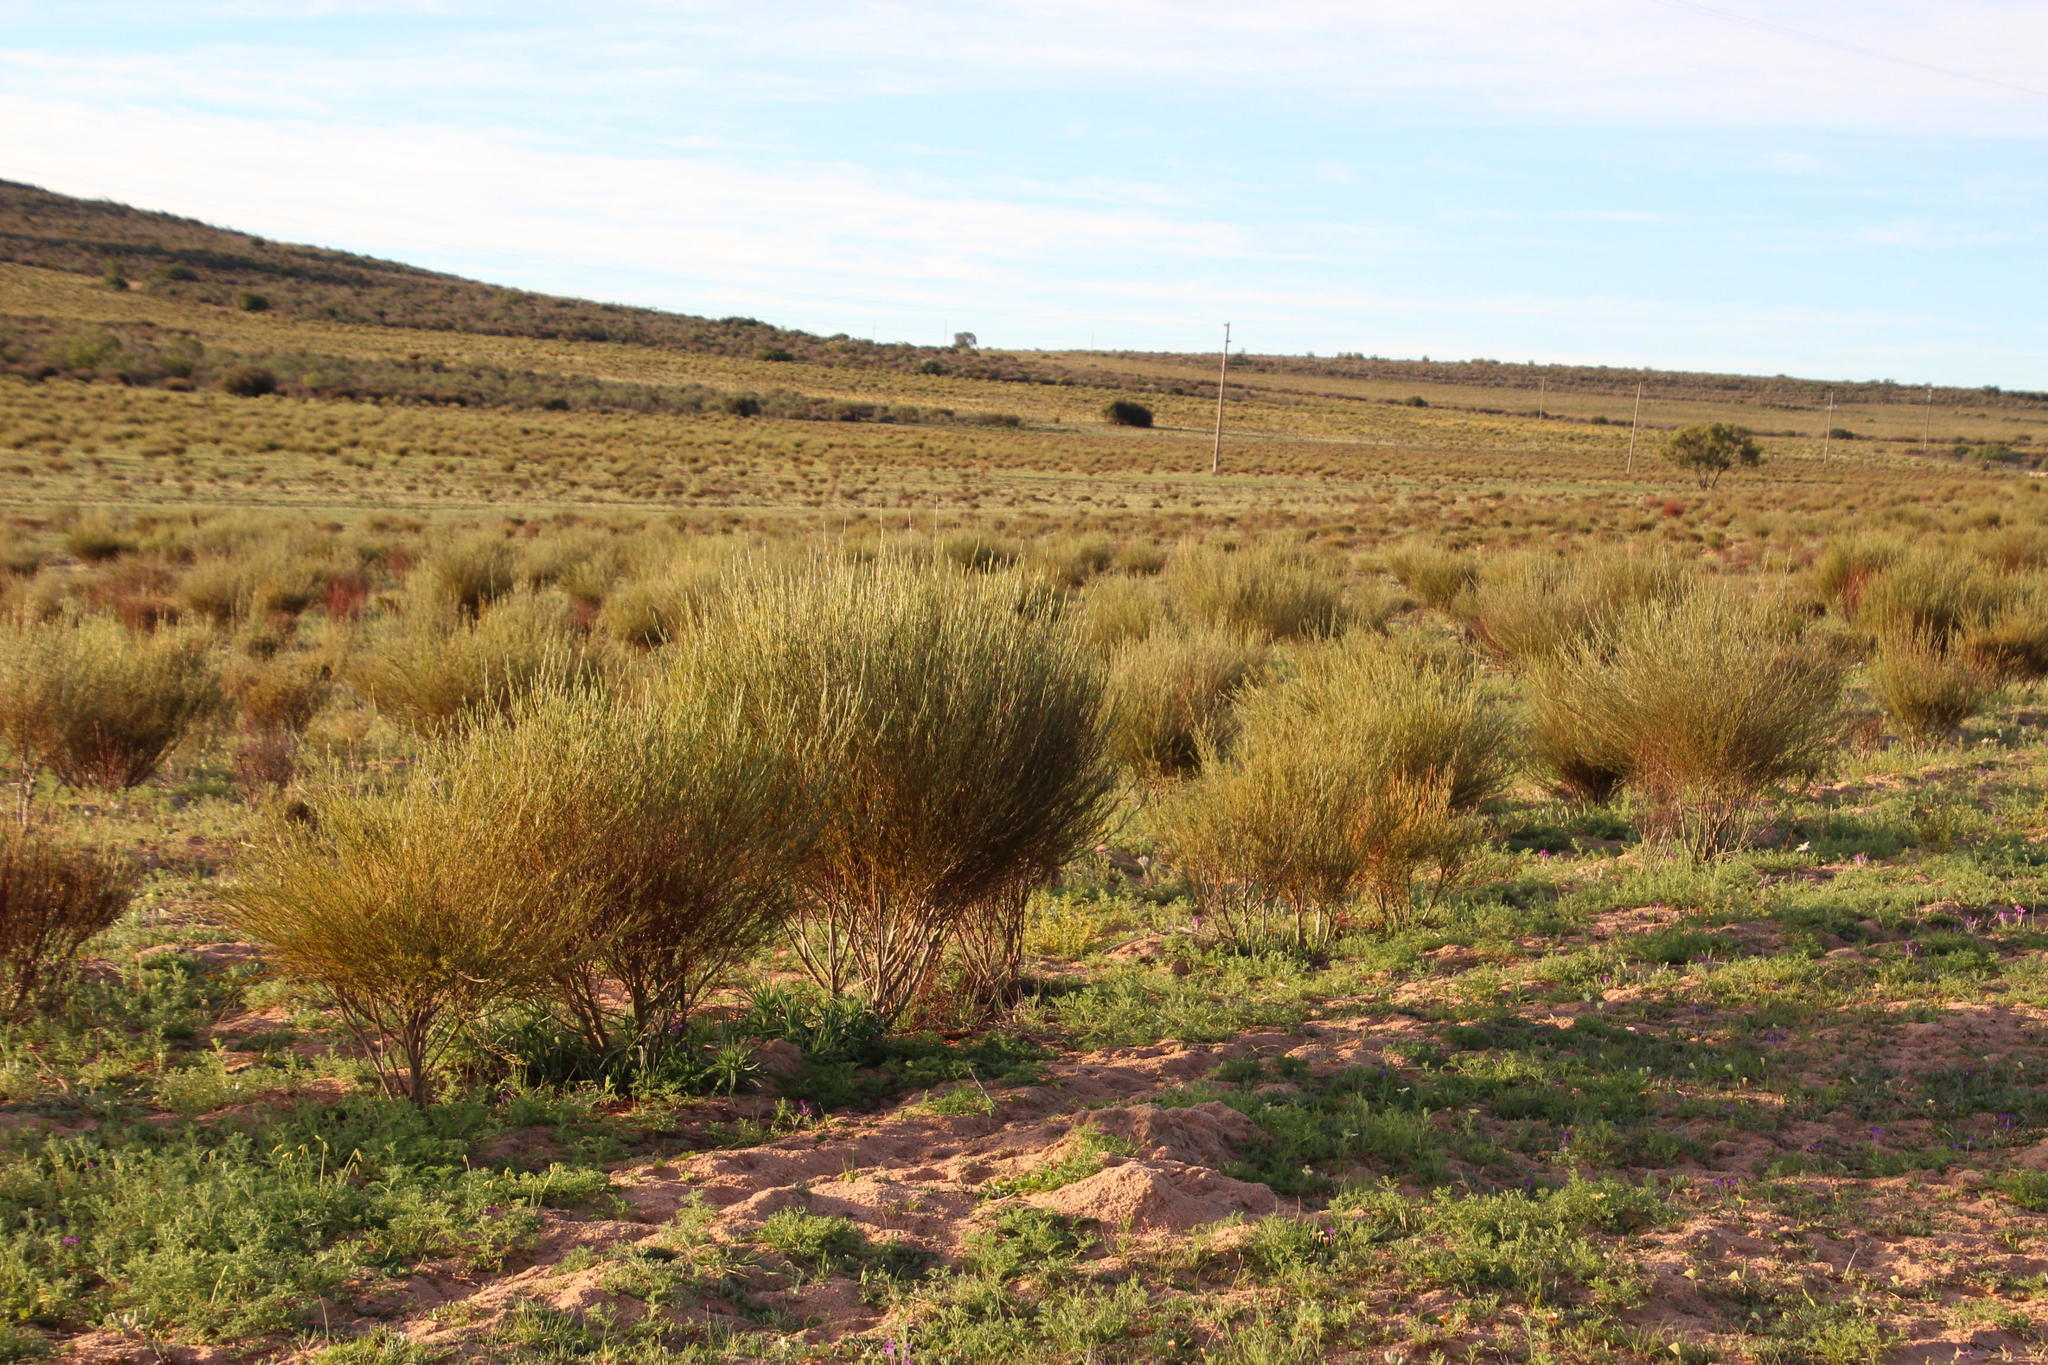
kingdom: Plantae
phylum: Tracheophyta
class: Magnoliopsida
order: Fabales
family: Fabaceae
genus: Aspalathus
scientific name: Aspalathus linearis
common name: Rooibos-tea
